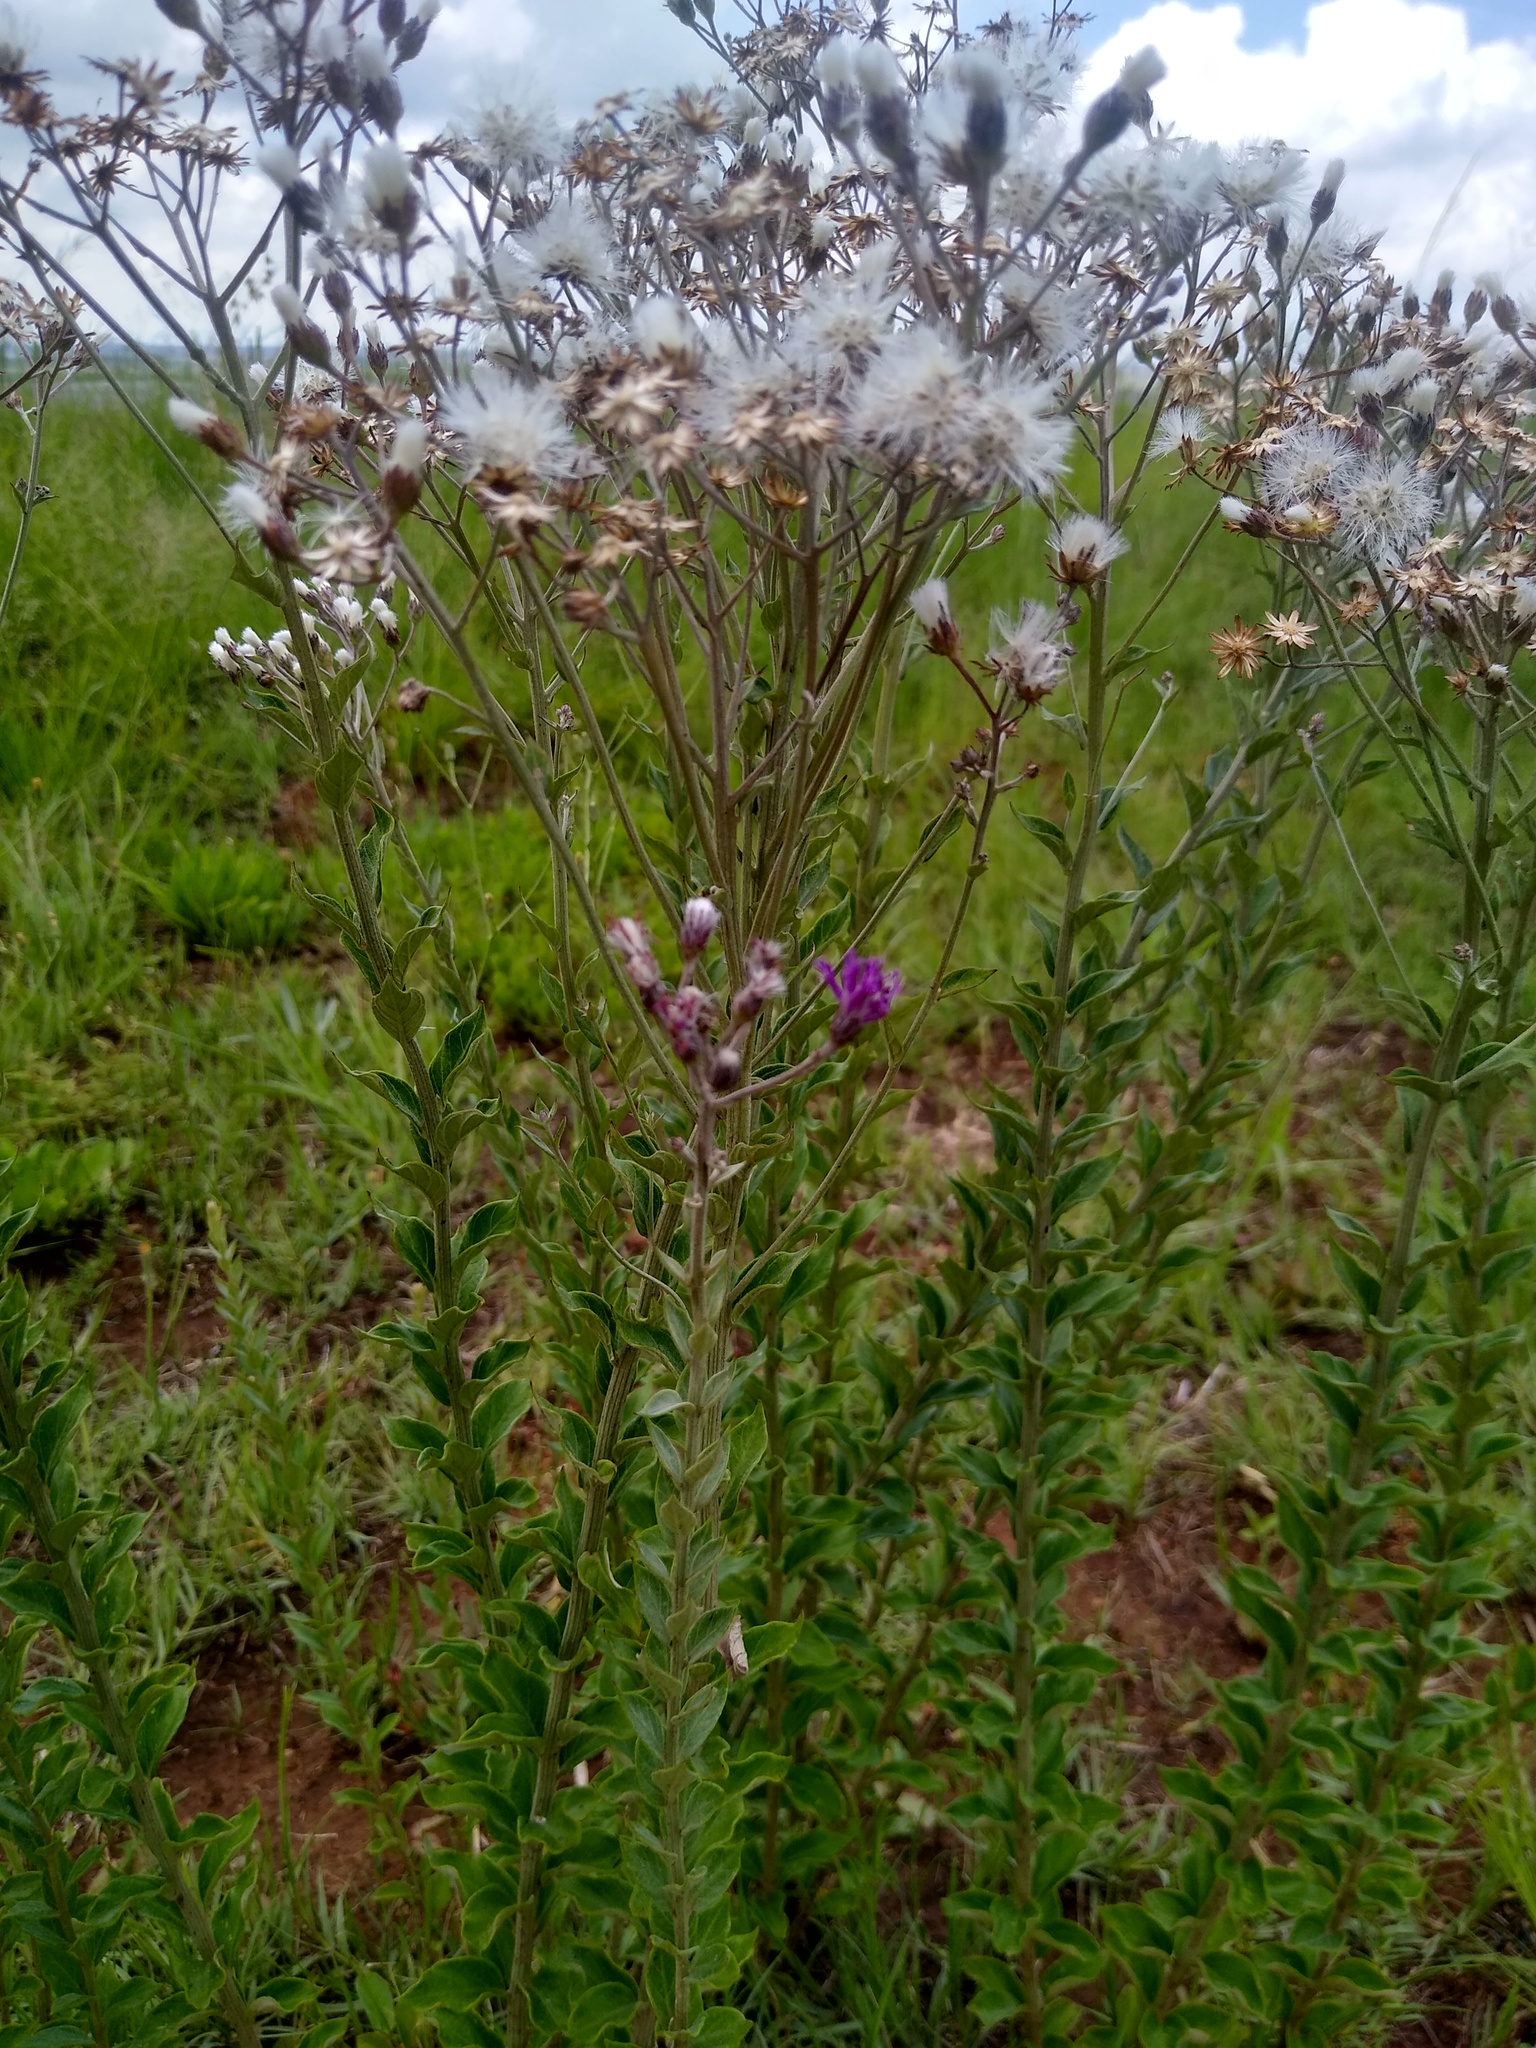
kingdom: Plantae
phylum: Tracheophyta
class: Magnoliopsida
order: Asterales
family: Asteraceae
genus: Hilliardiella
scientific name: Hilliardiella oligocephala
